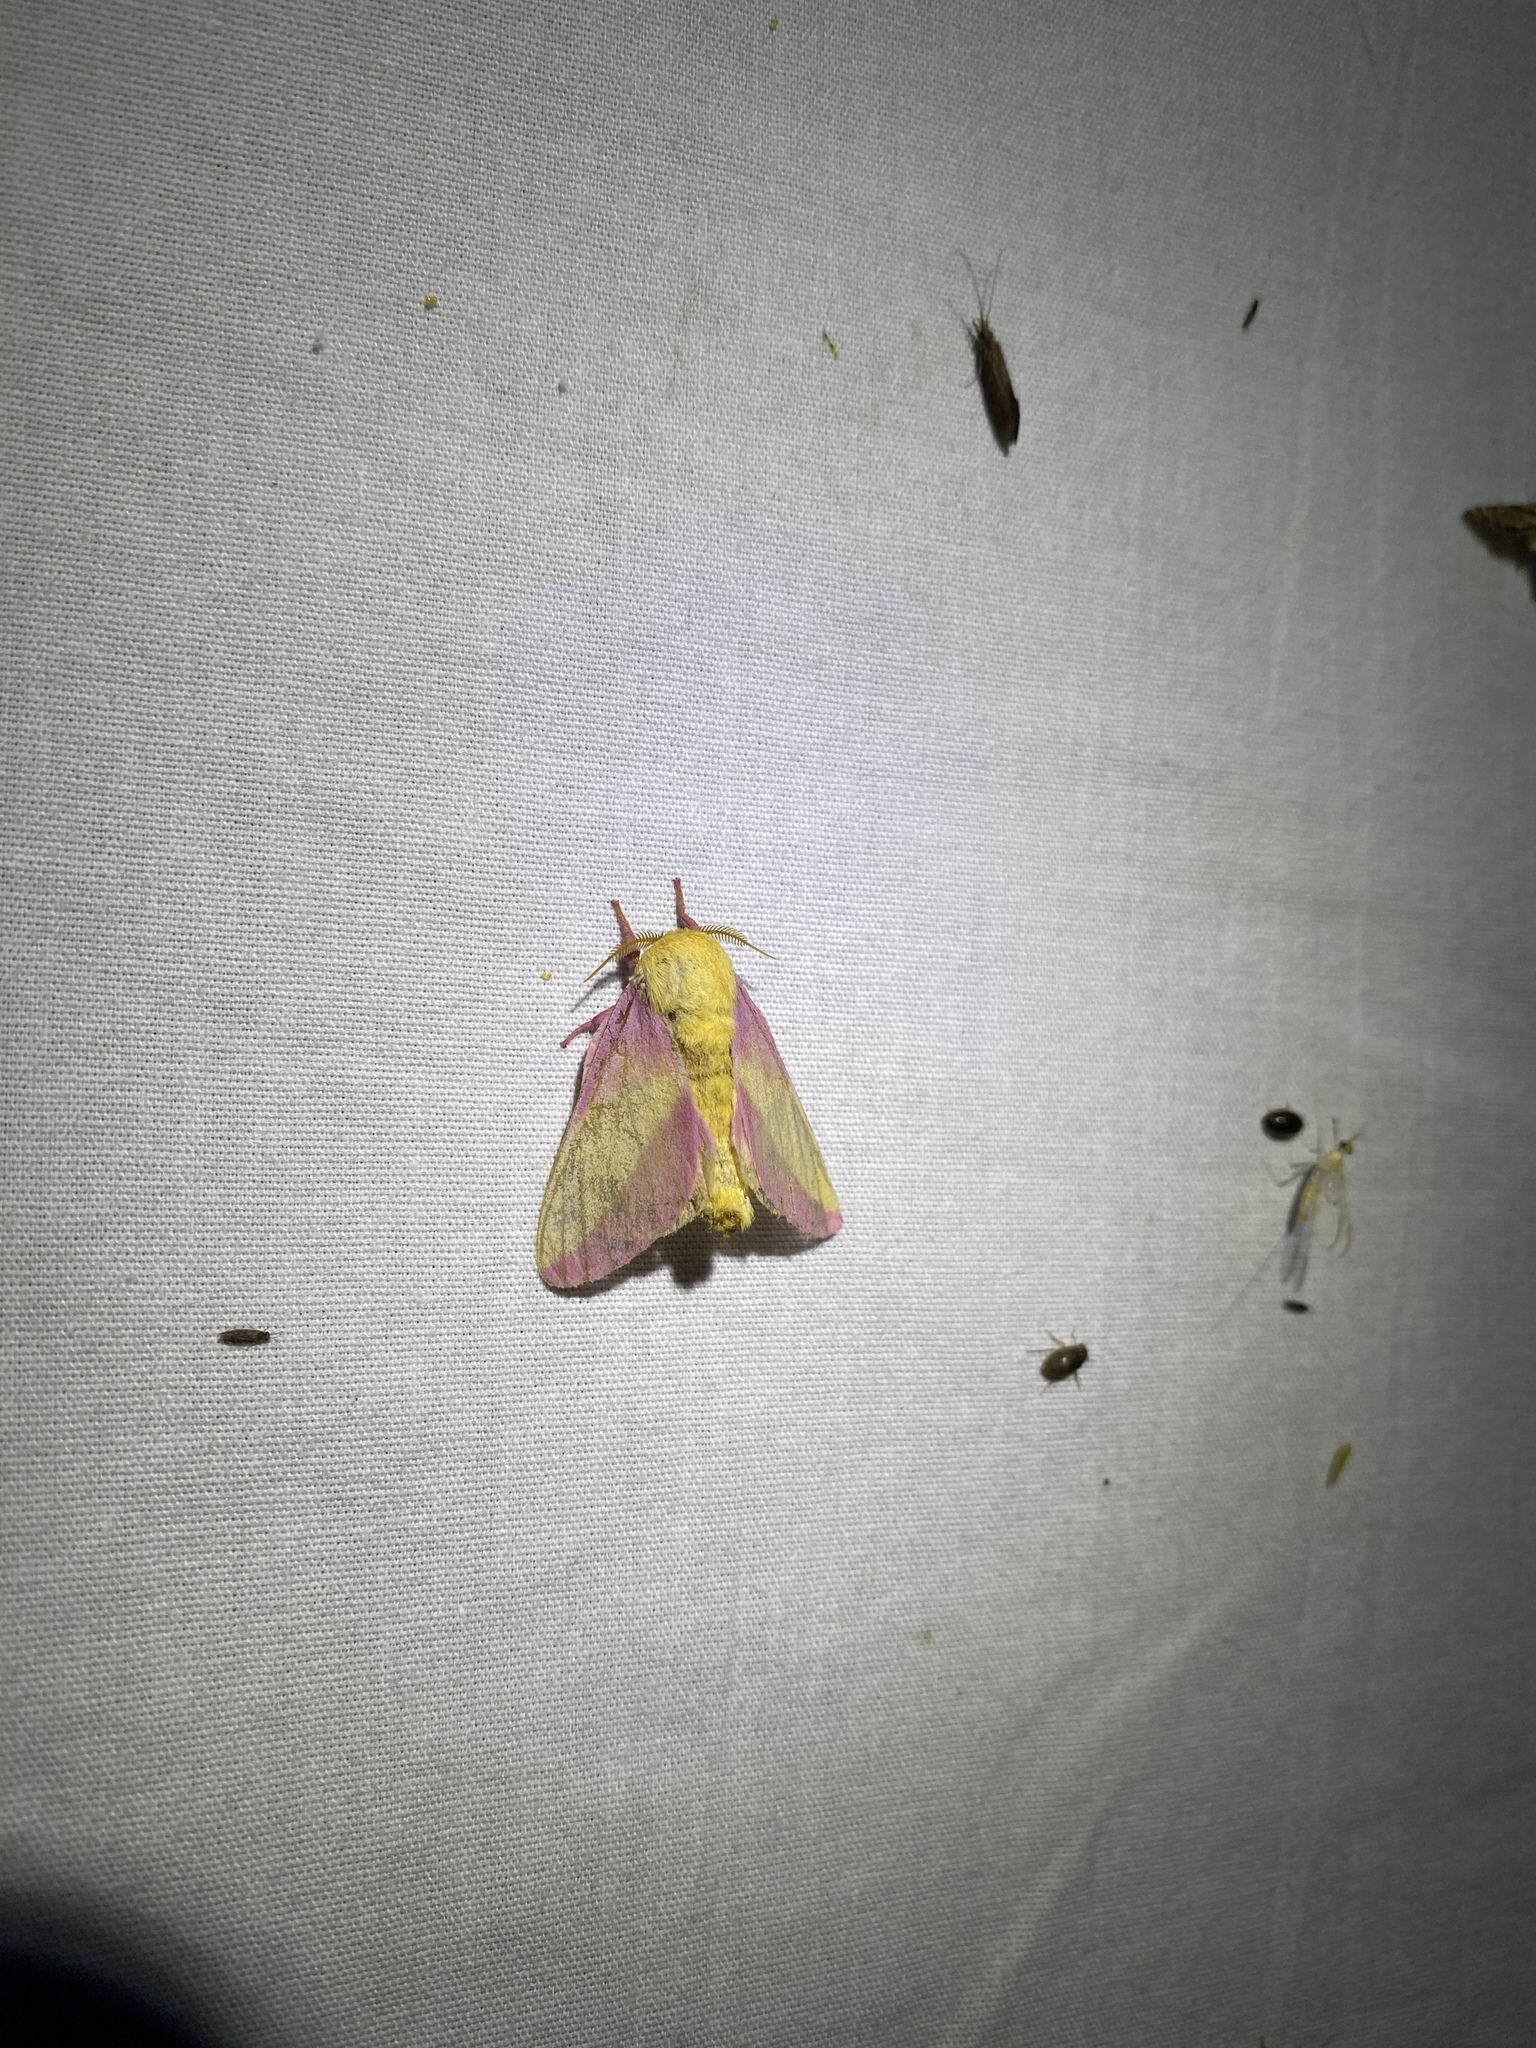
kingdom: Animalia
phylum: Arthropoda
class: Insecta
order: Lepidoptera
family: Saturniidae
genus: Dryocampa
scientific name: Dryocampa rubicunda
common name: Rosy maple moth
